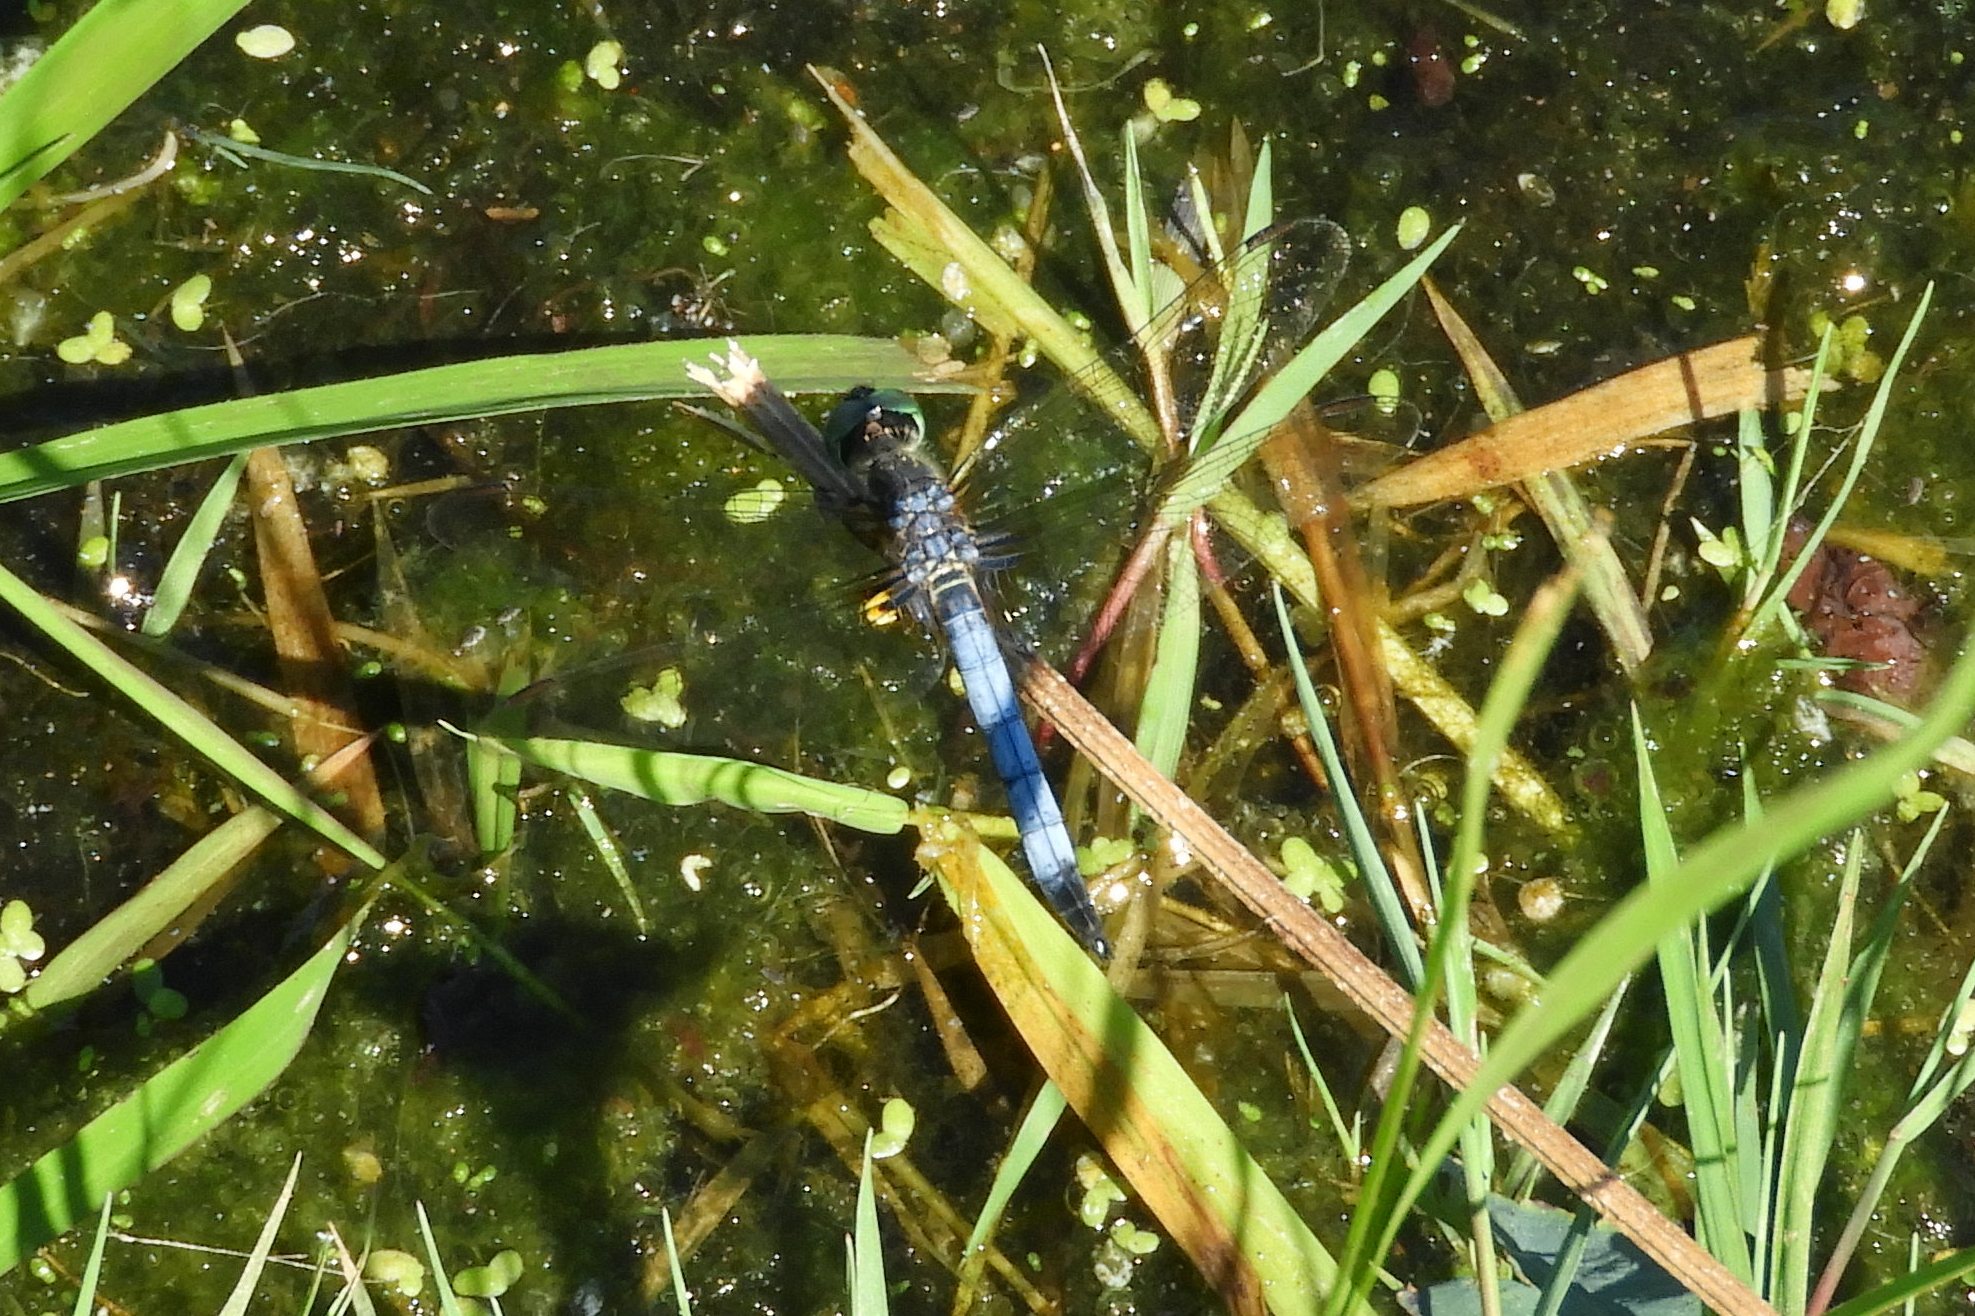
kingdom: Animalia
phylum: Arthropoda
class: Insecta
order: Odonata
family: Libellulidae
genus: Pachydiplax
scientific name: Pachydiplax longipennis
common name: Blue dasher
